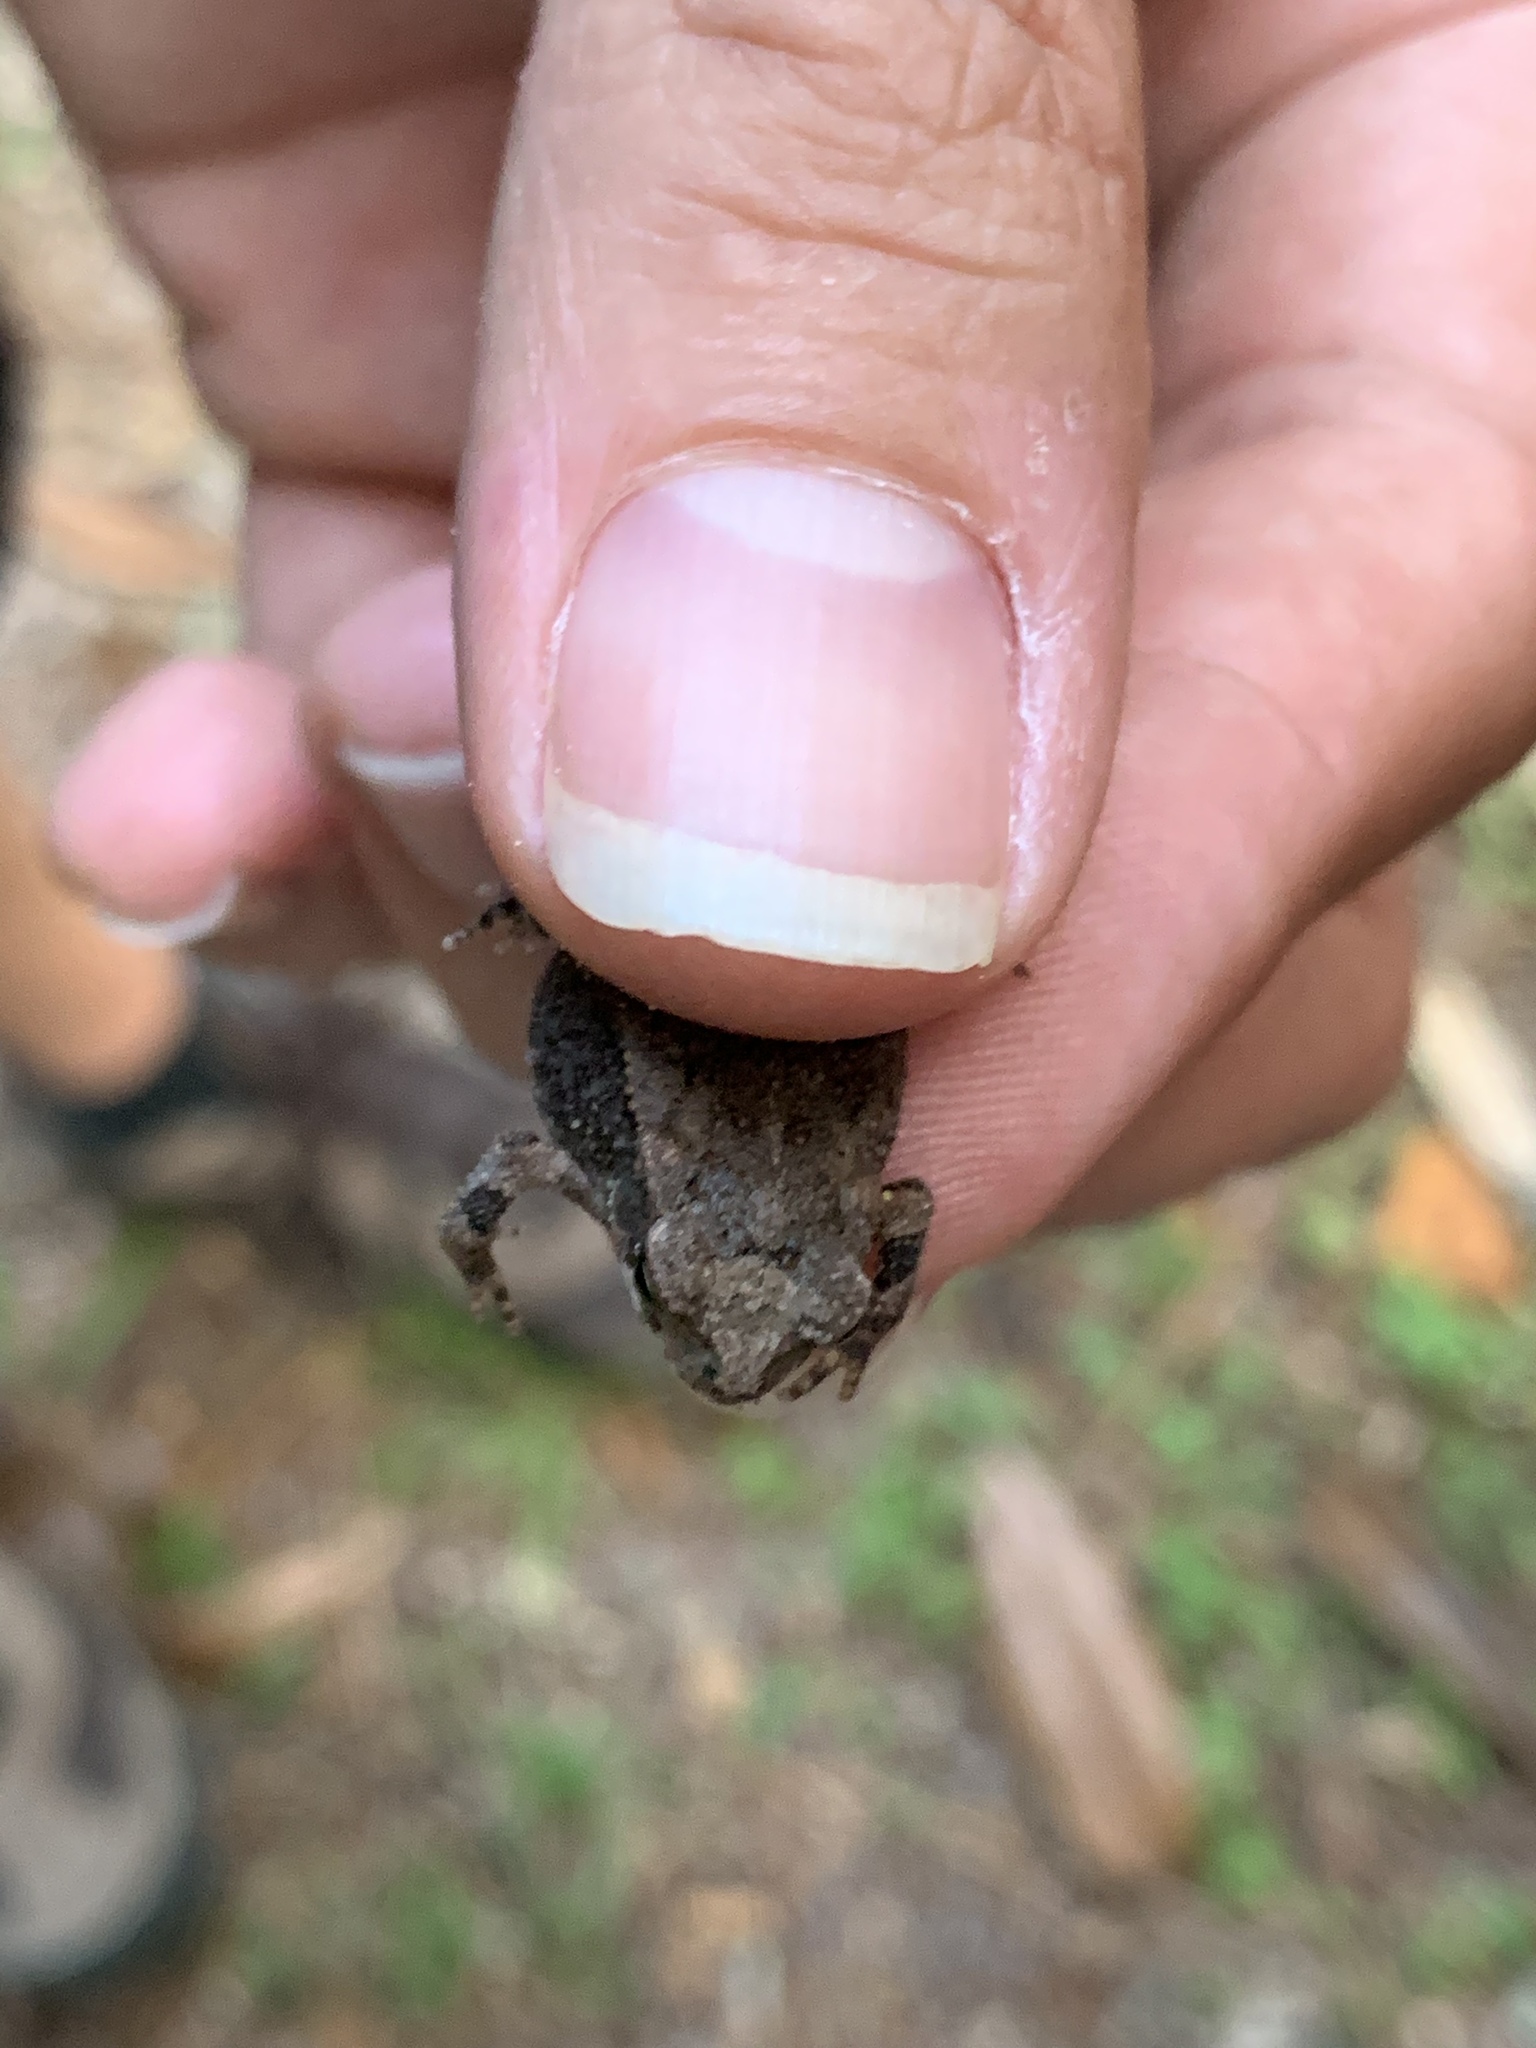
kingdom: Animalia
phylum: Chordata
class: Amphibia
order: Anura
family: Bufonidae
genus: Incilius
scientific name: Incilius nebulifer
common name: Gulf coast toad
